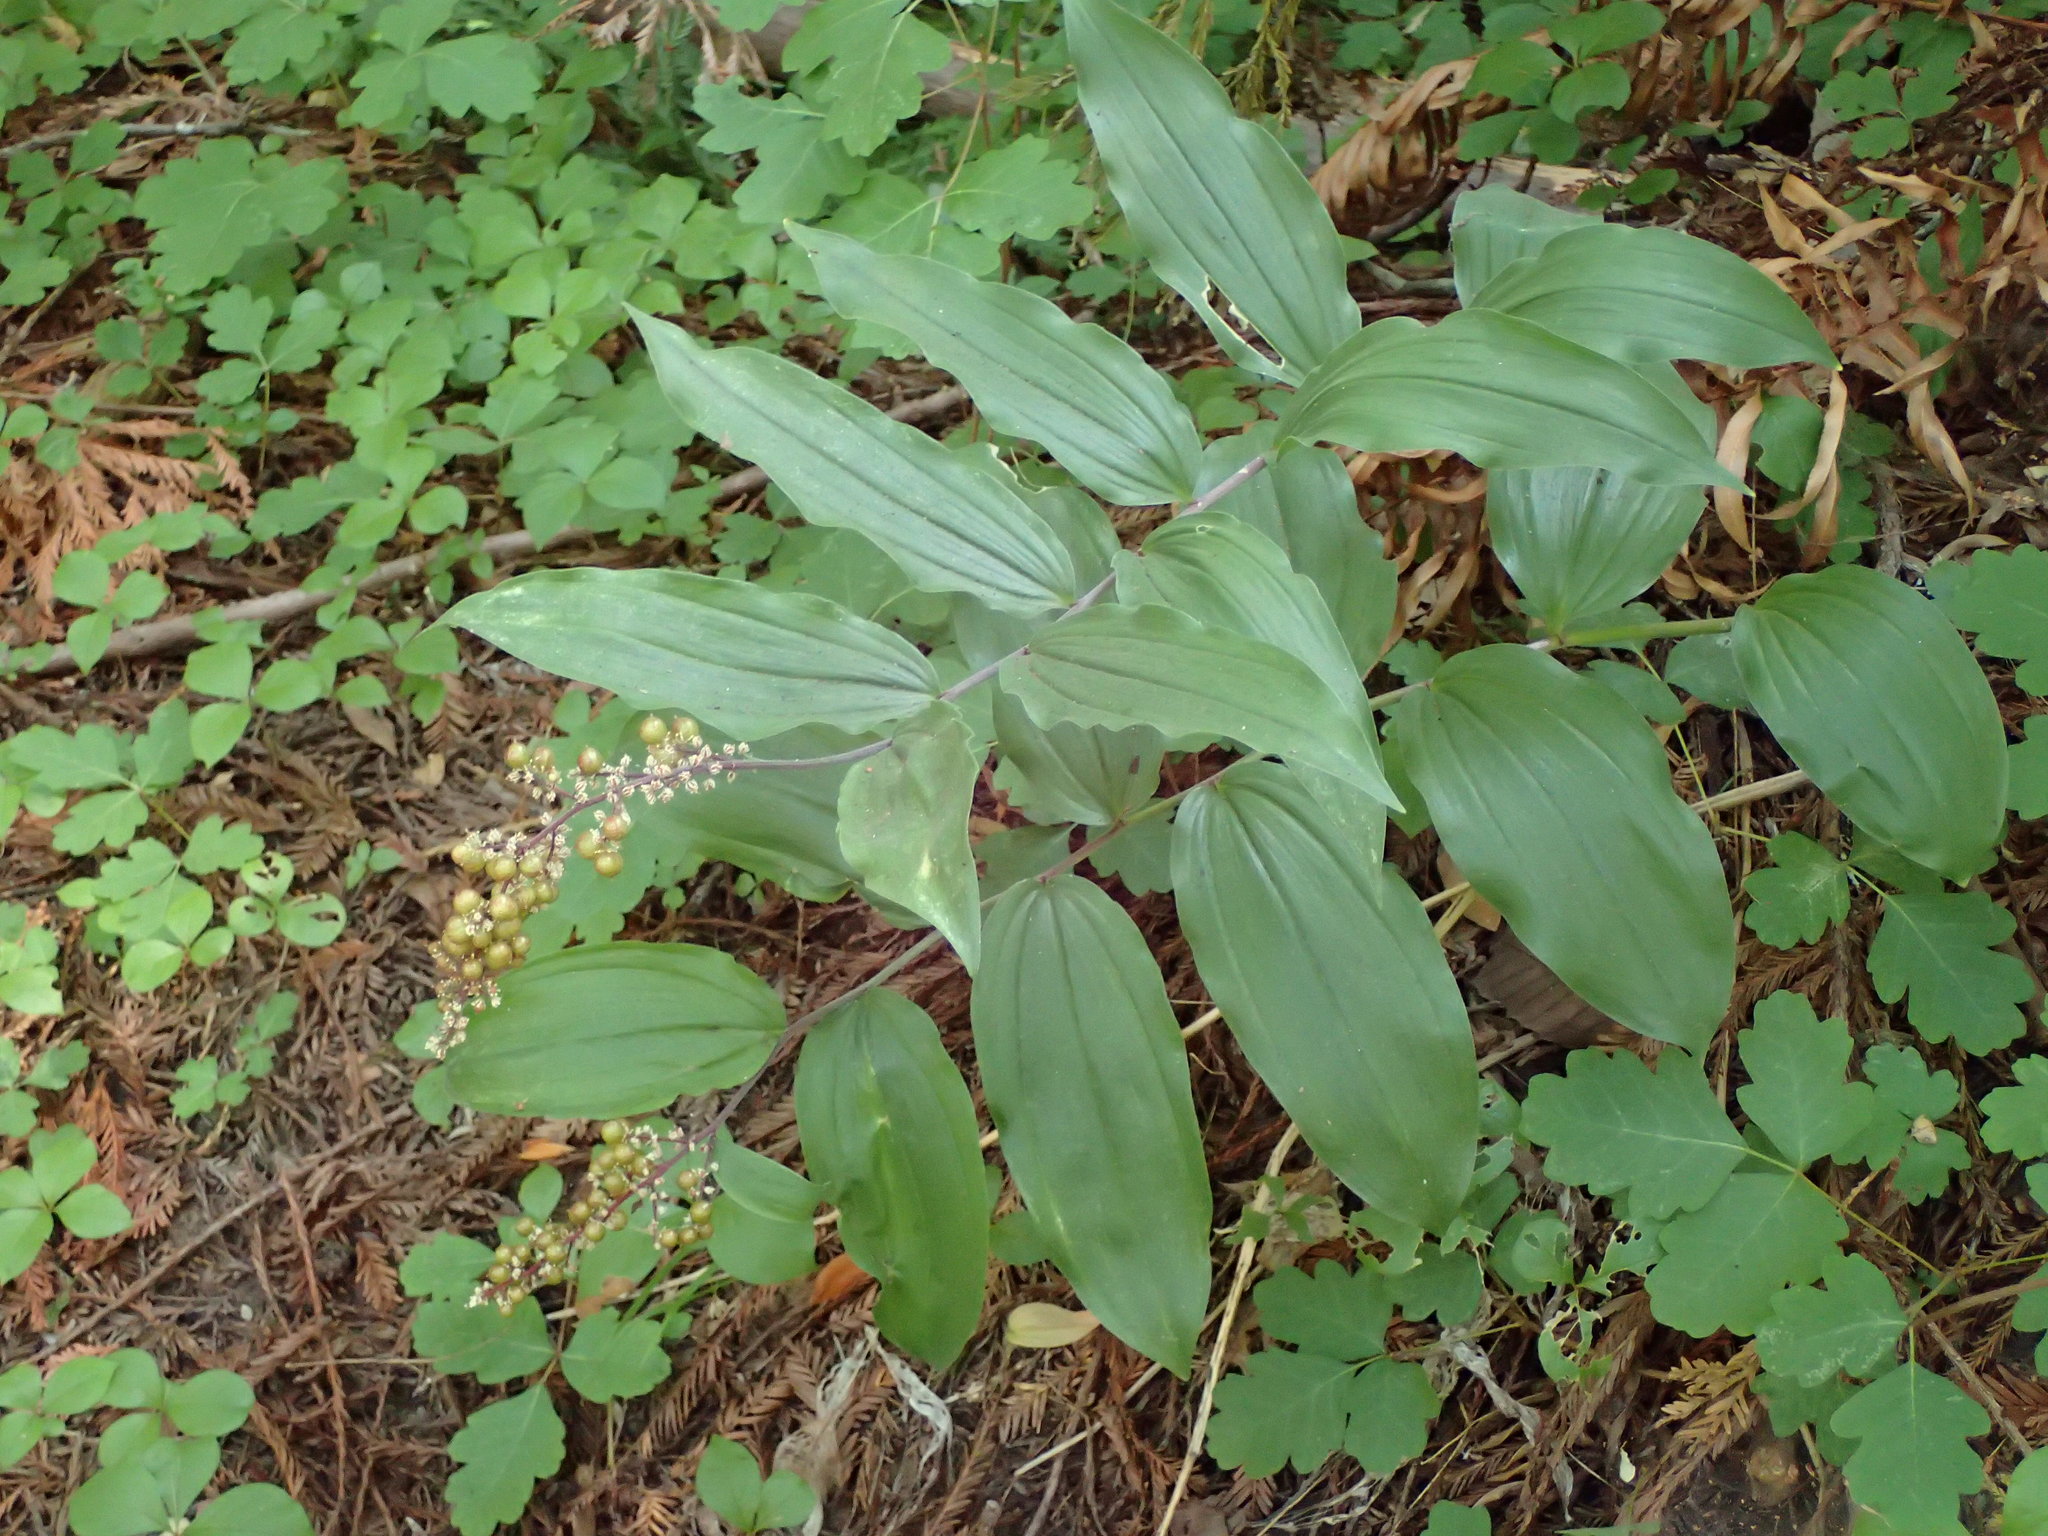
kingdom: Plantae
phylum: Tracheophyta
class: Liliopsida
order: Asparagales
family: Asparagaceae
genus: Maianthemum
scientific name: Maianthemum racemosum
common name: False spikenard
